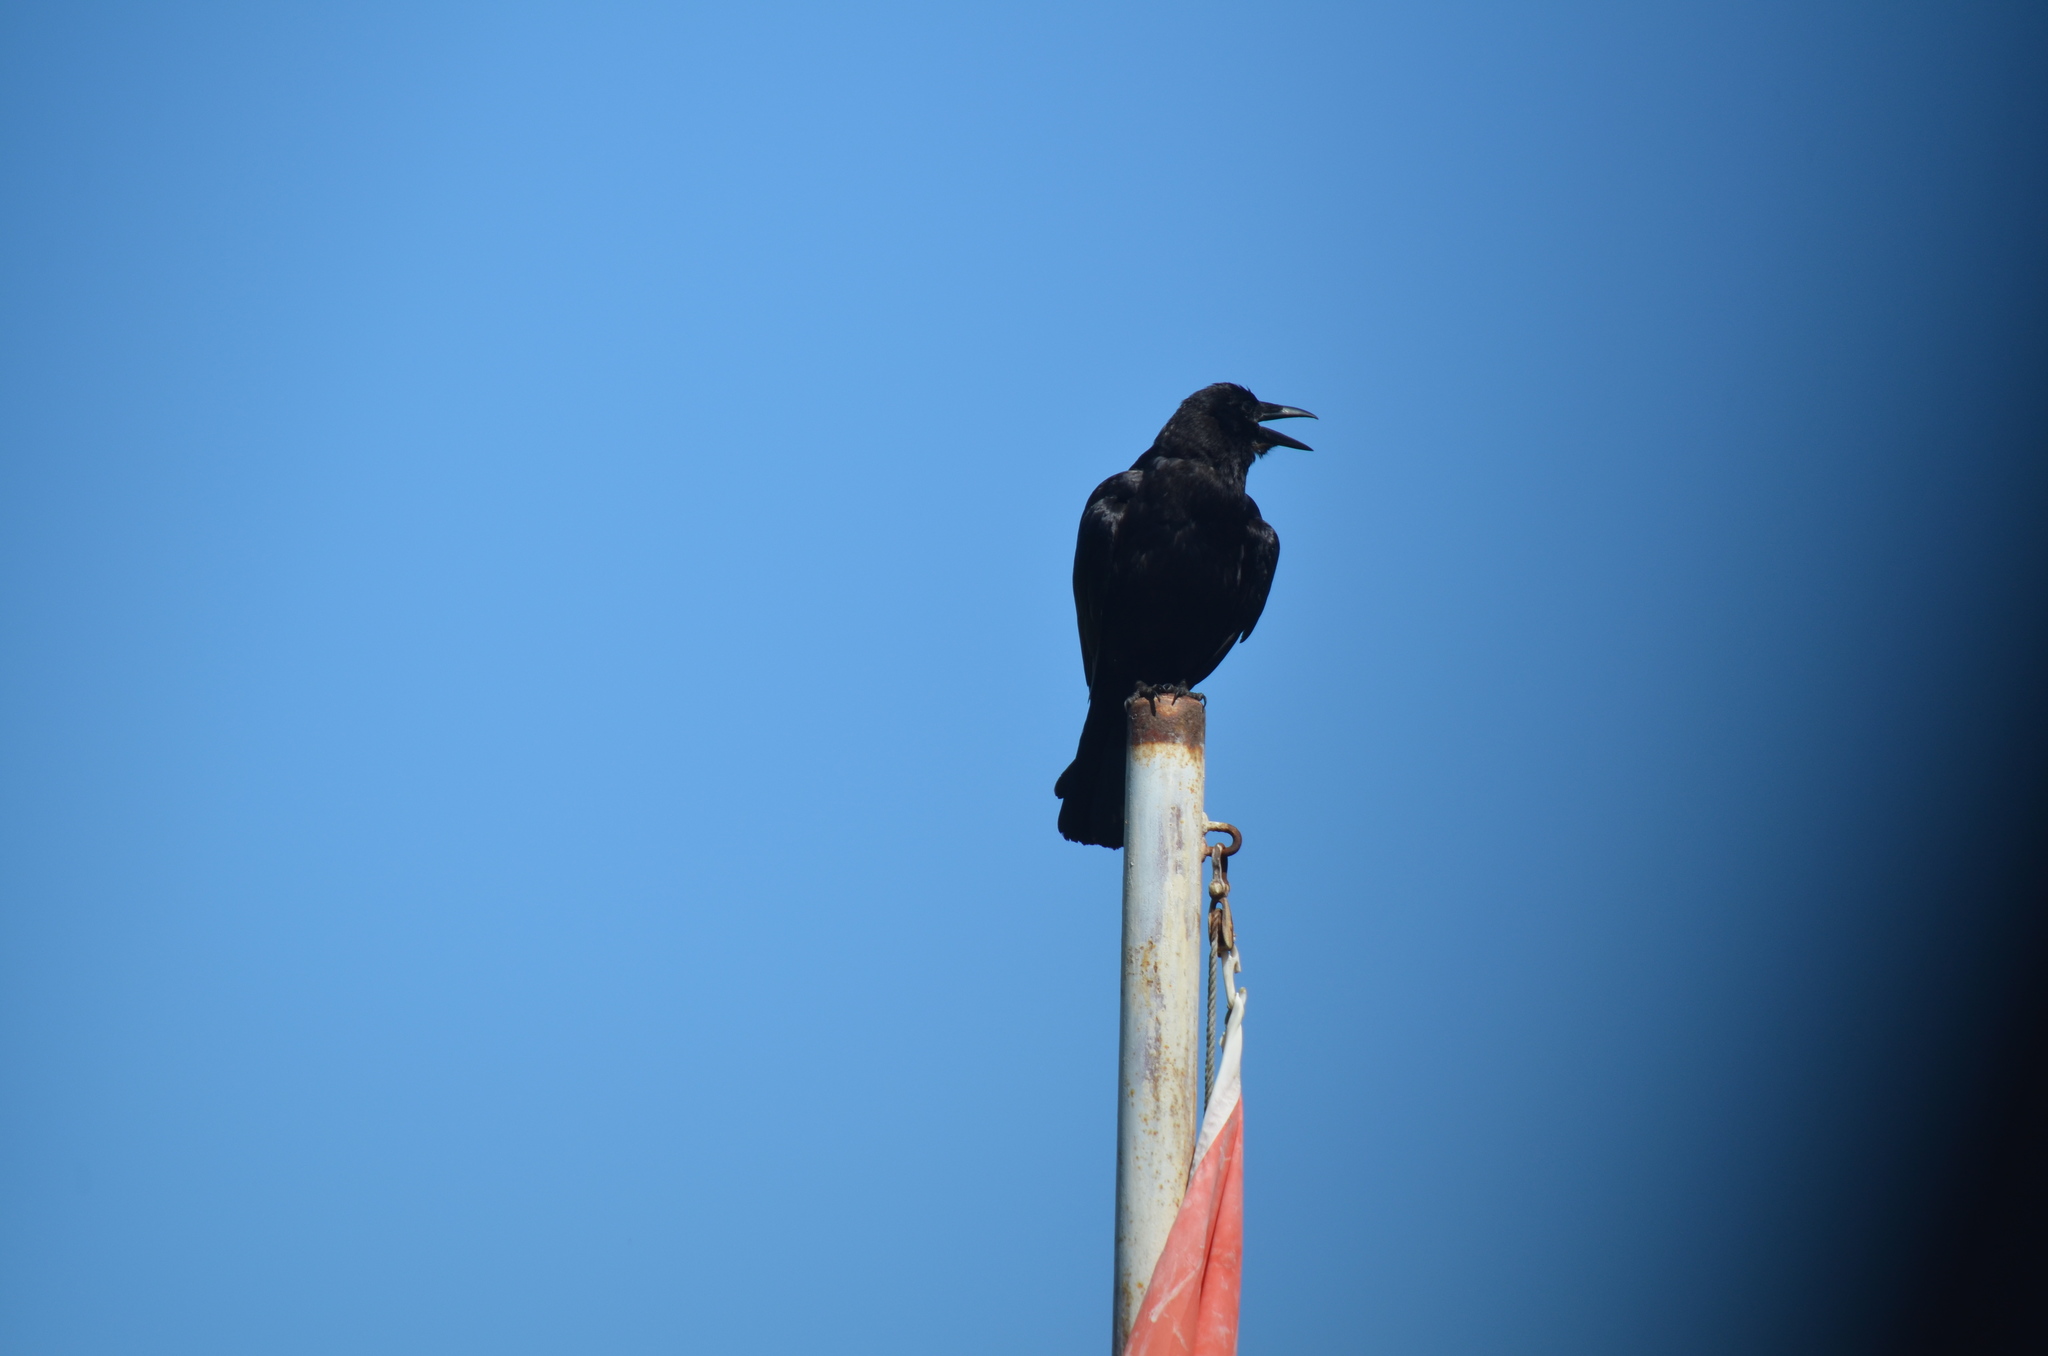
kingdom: Animalia
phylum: Chordata
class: Aves
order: Passeriformes
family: Corvidae
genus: Corvus
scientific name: Corvus brachyrhynchos
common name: American crow
